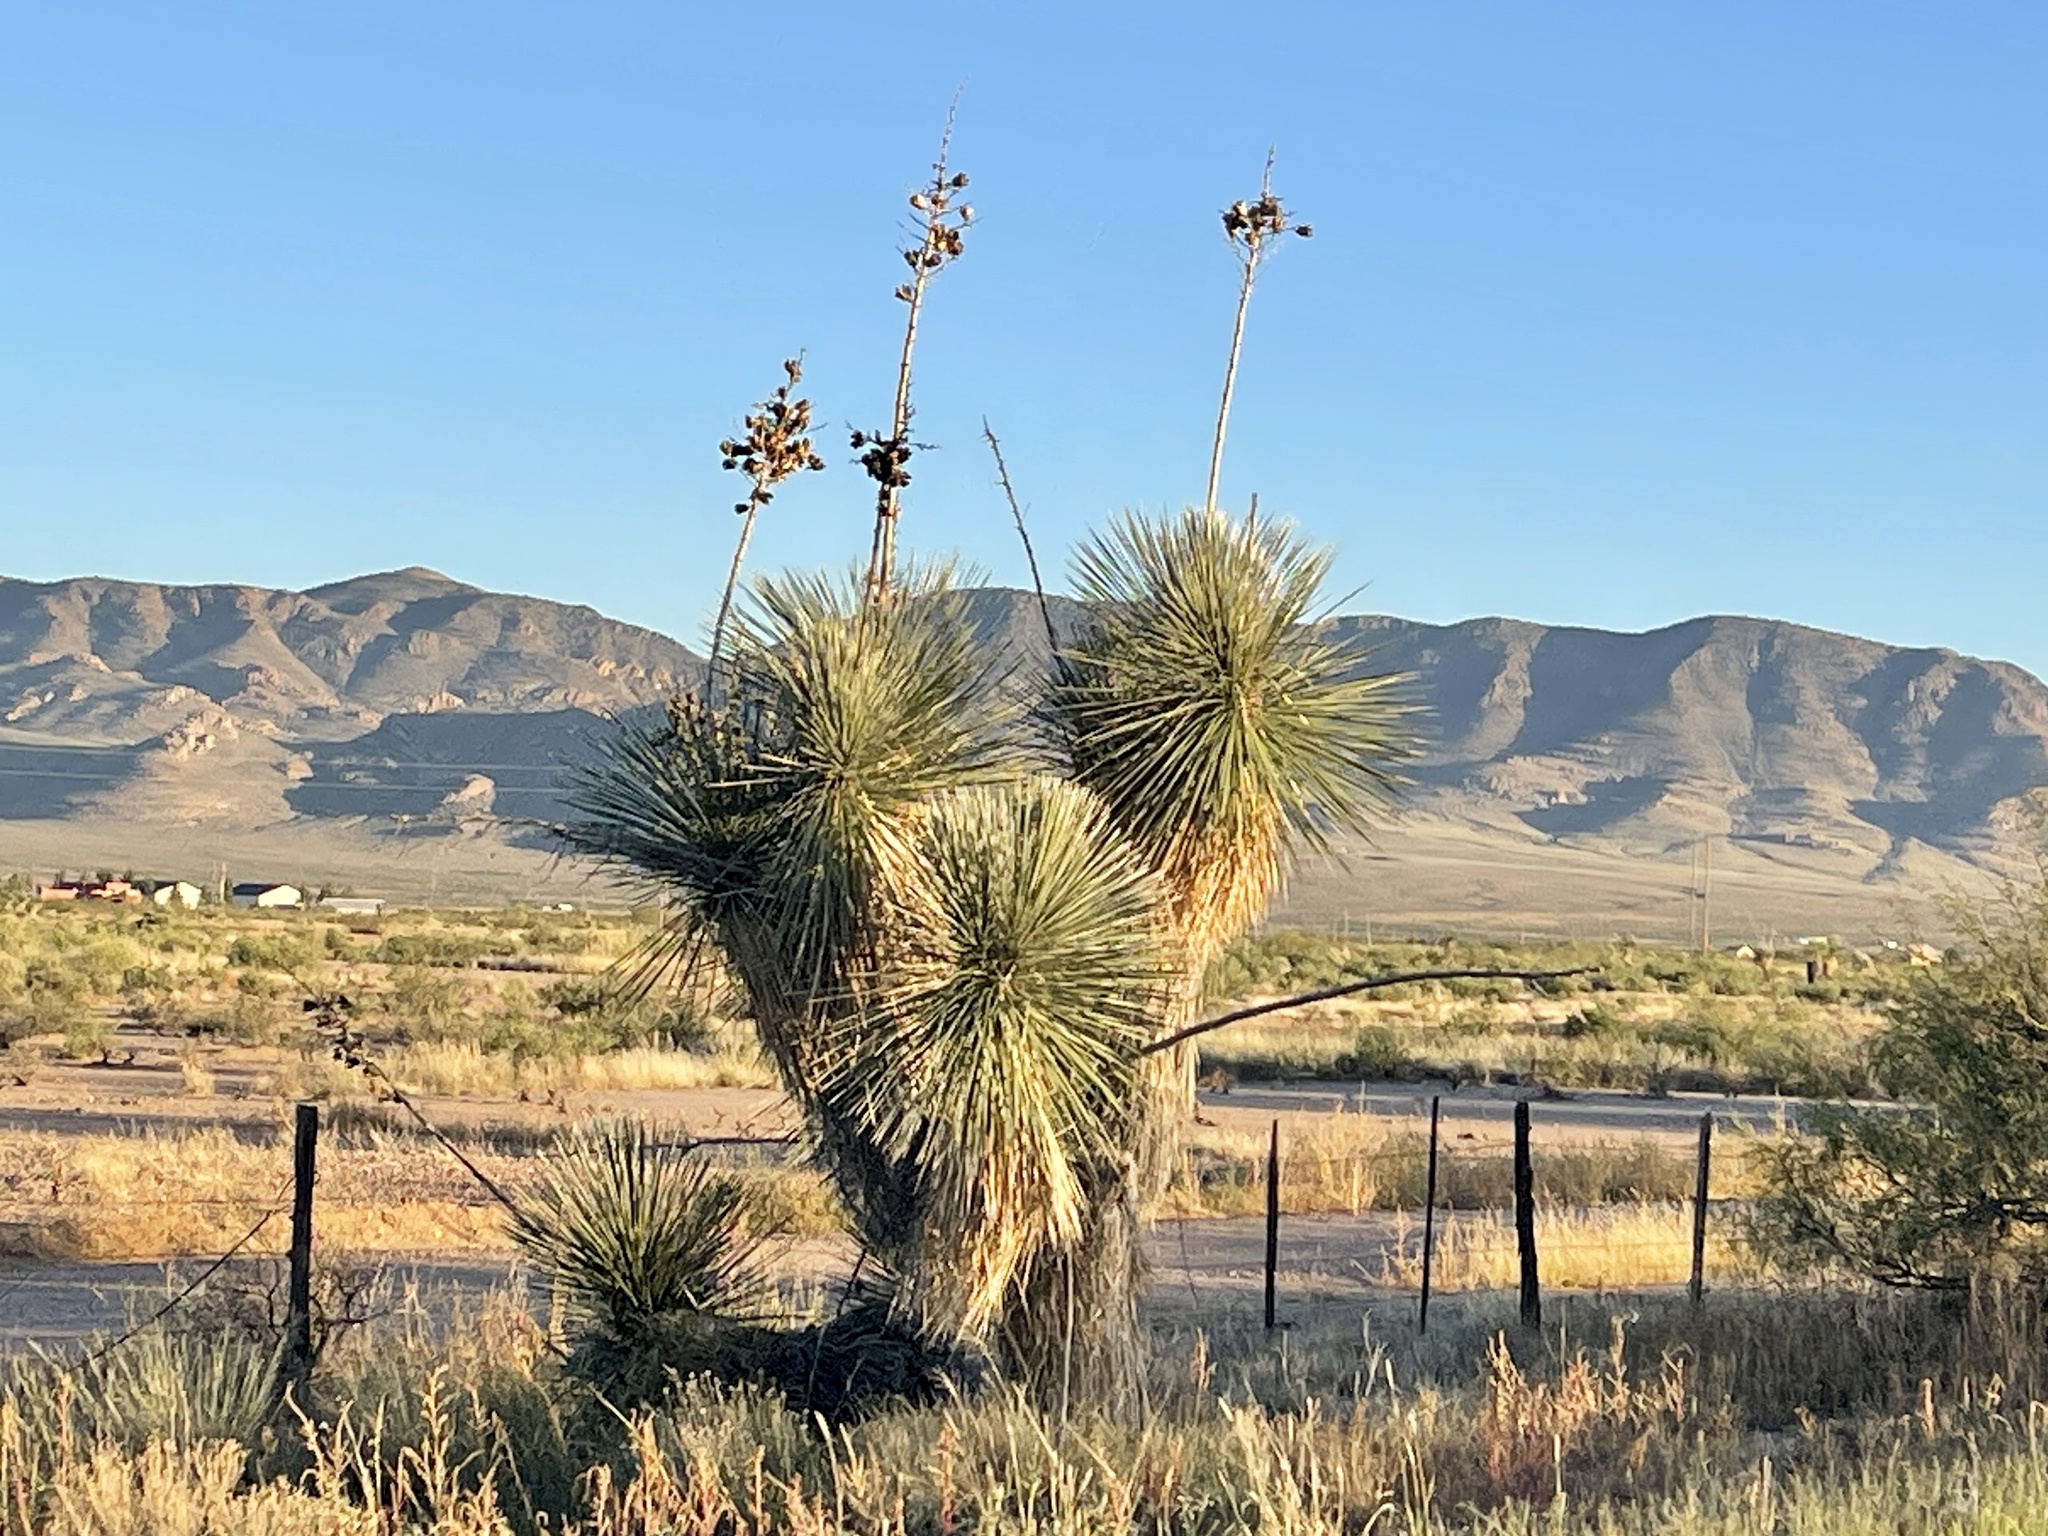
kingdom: Plantae
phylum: Tracheophyta
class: Liliopsida
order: Asparagales
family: Asparagaceae
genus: Yucca
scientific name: Yucca elata
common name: Palmella
